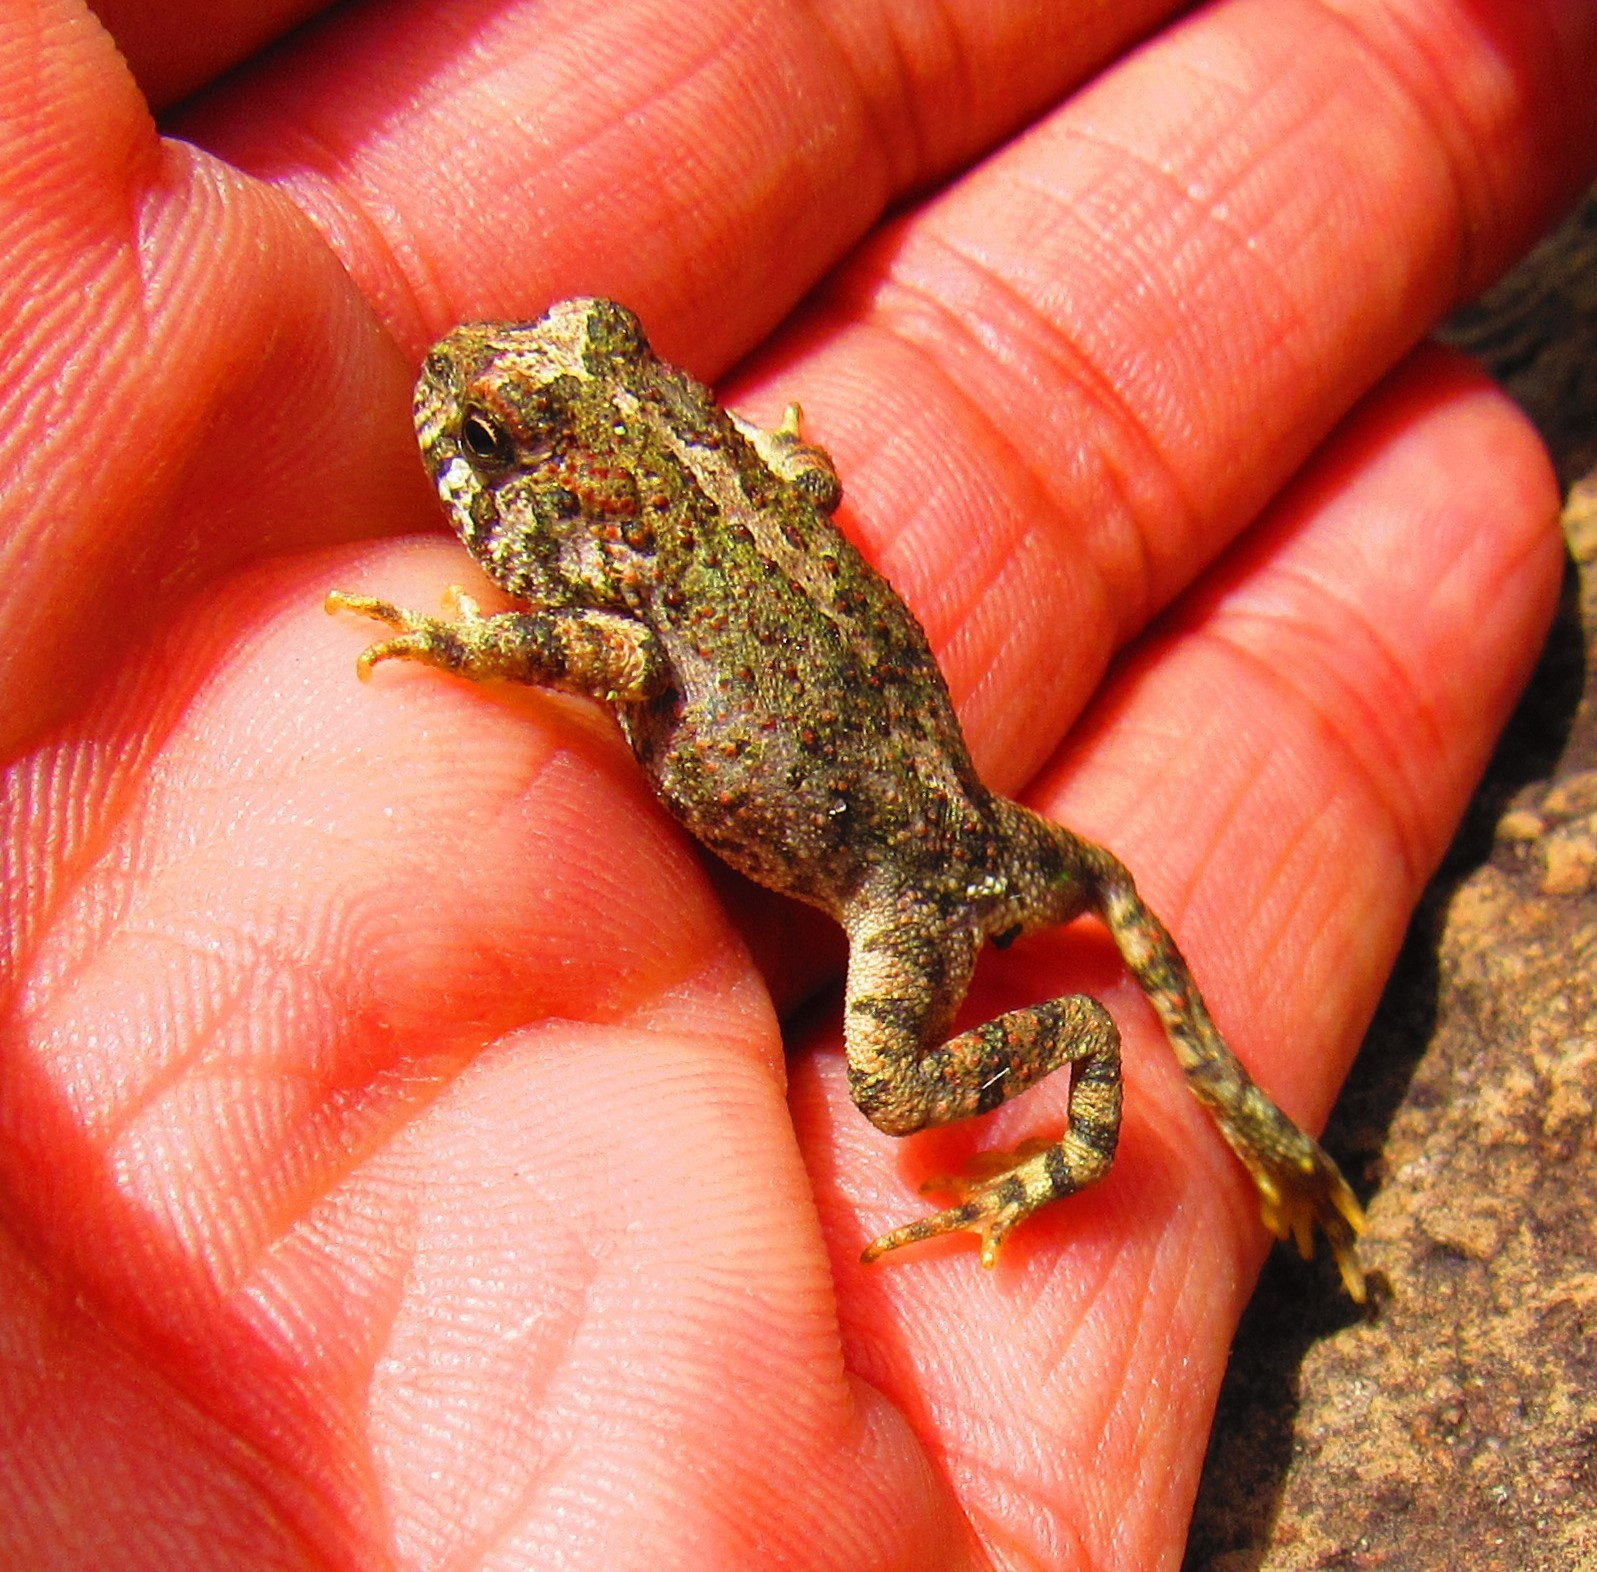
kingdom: Animalia
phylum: Chordata
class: Amphibia
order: Anura
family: Bufonidae
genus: Incilius
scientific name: Incilius occidentalis
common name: Pine toad
